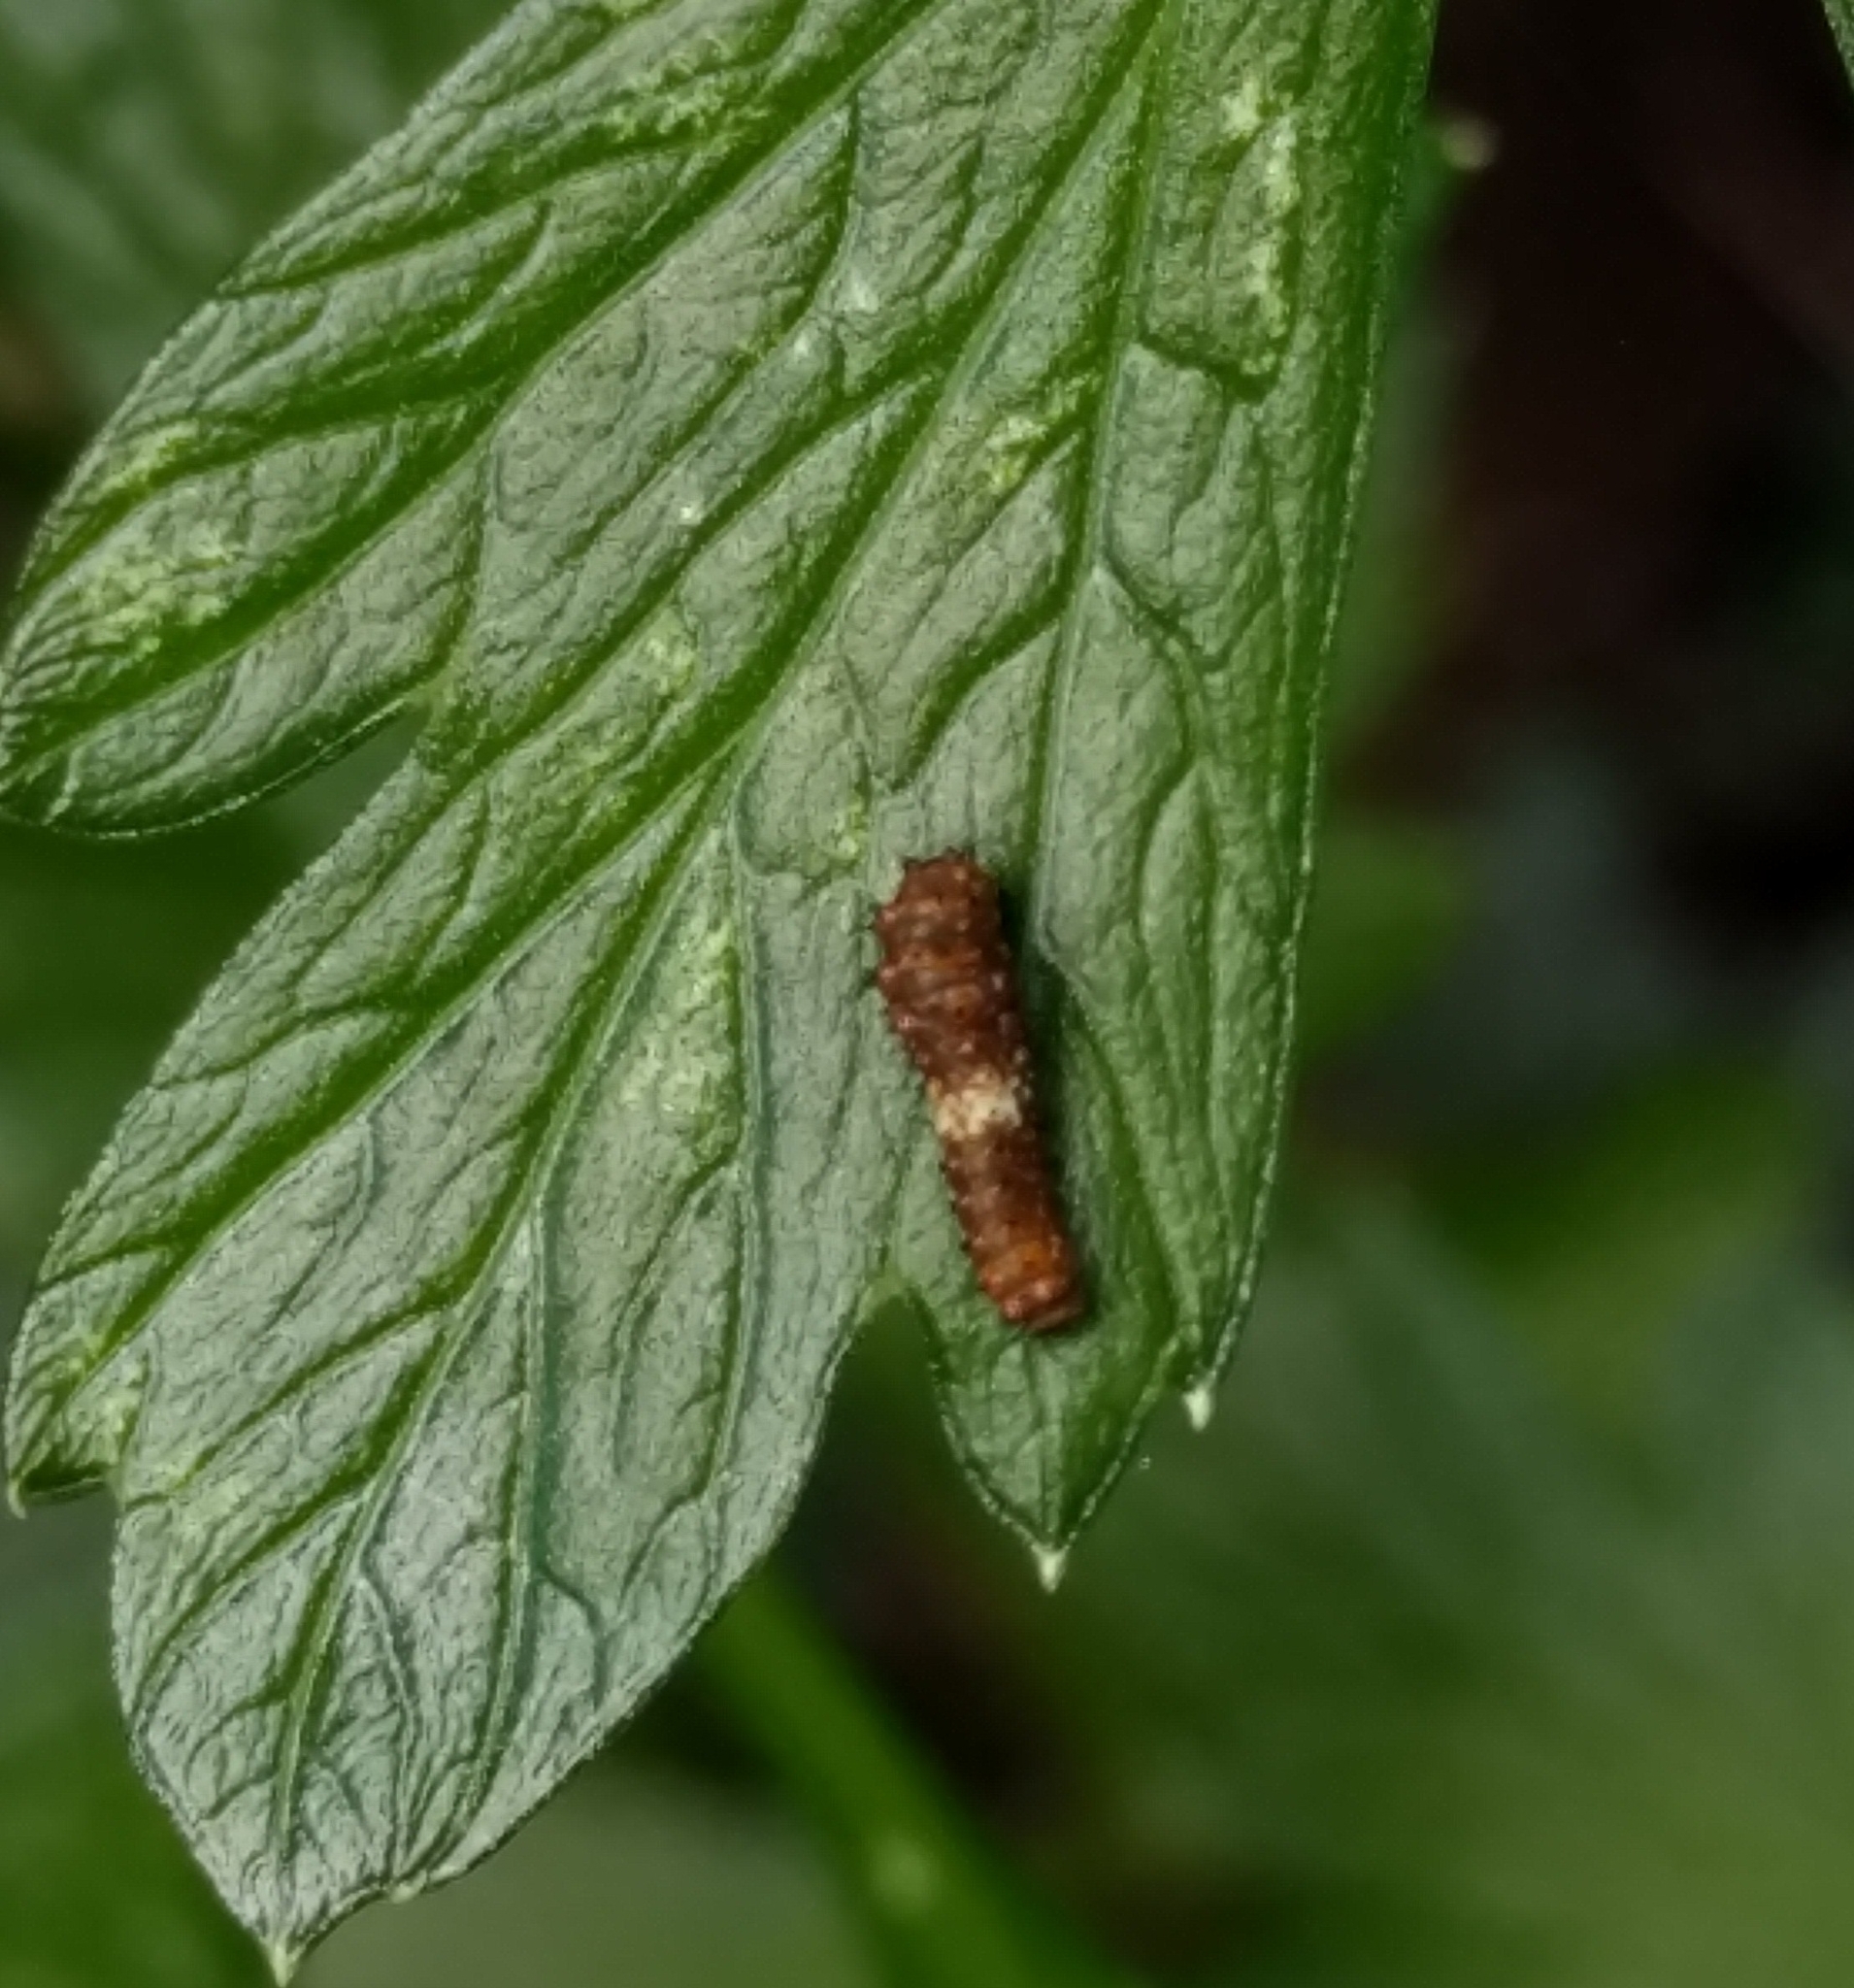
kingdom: Animalia
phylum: Arthropoda
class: Insecta
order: Lepidoptera
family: Papilionidae
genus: Papilio
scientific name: Papilio polyxenes
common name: Black swallowtail
